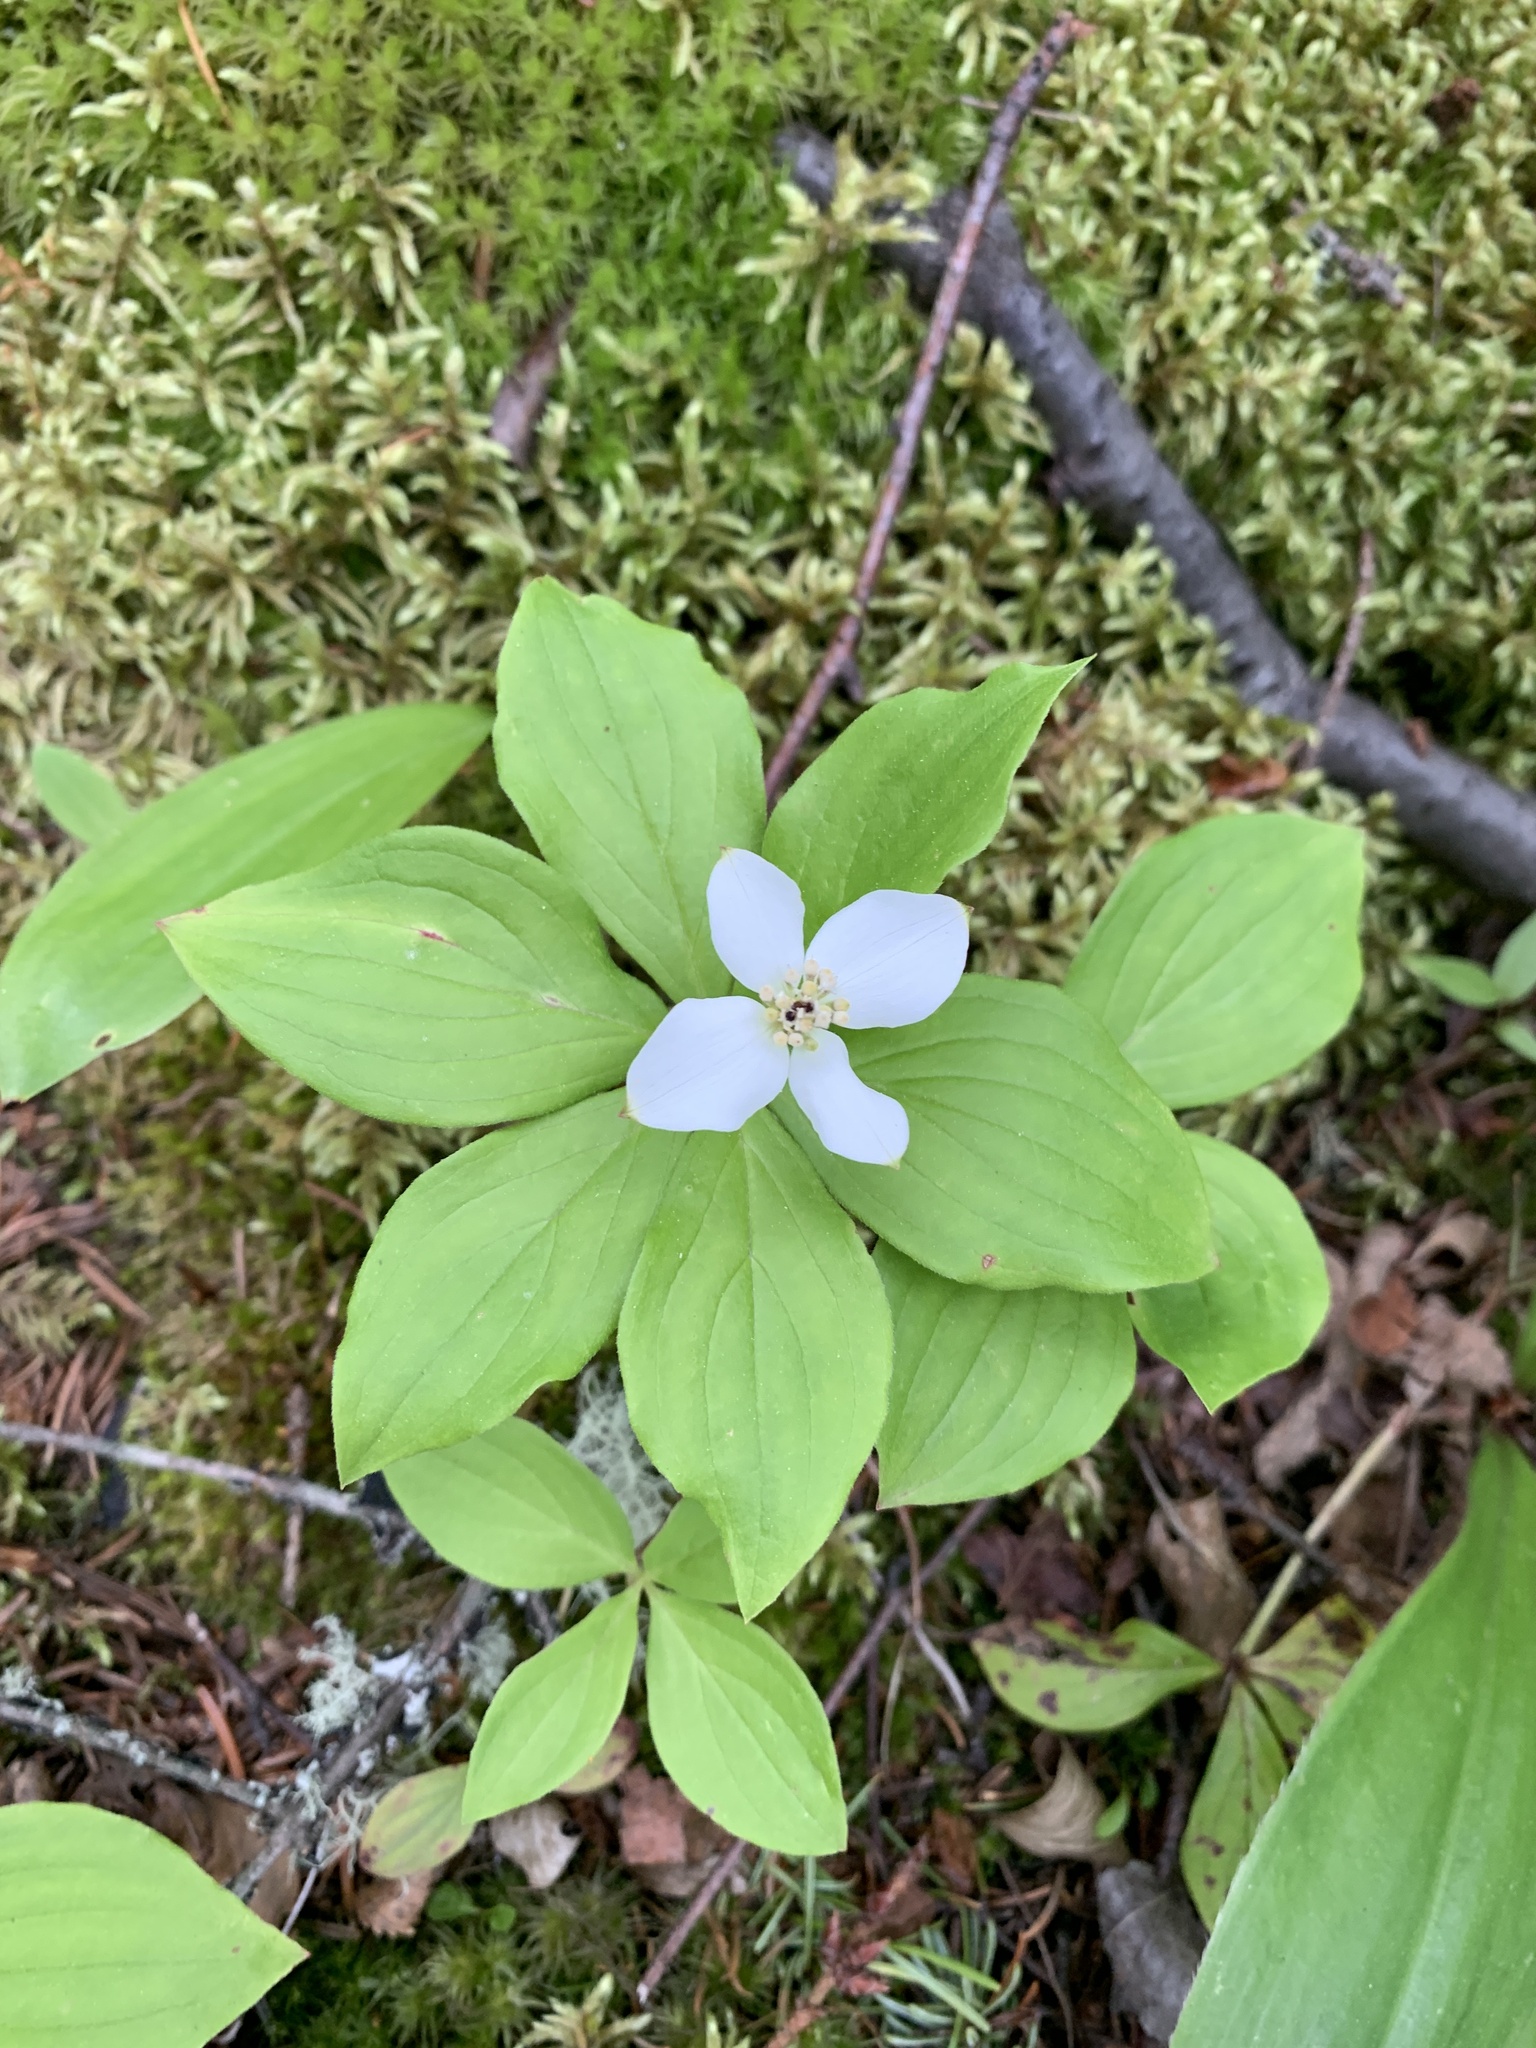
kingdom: Plantae
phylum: Tracheophyta
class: Magnoliopsida
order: Cornales
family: Cornaceae
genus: Cornus
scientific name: Cornus canadensis
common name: Creeping dogwood
